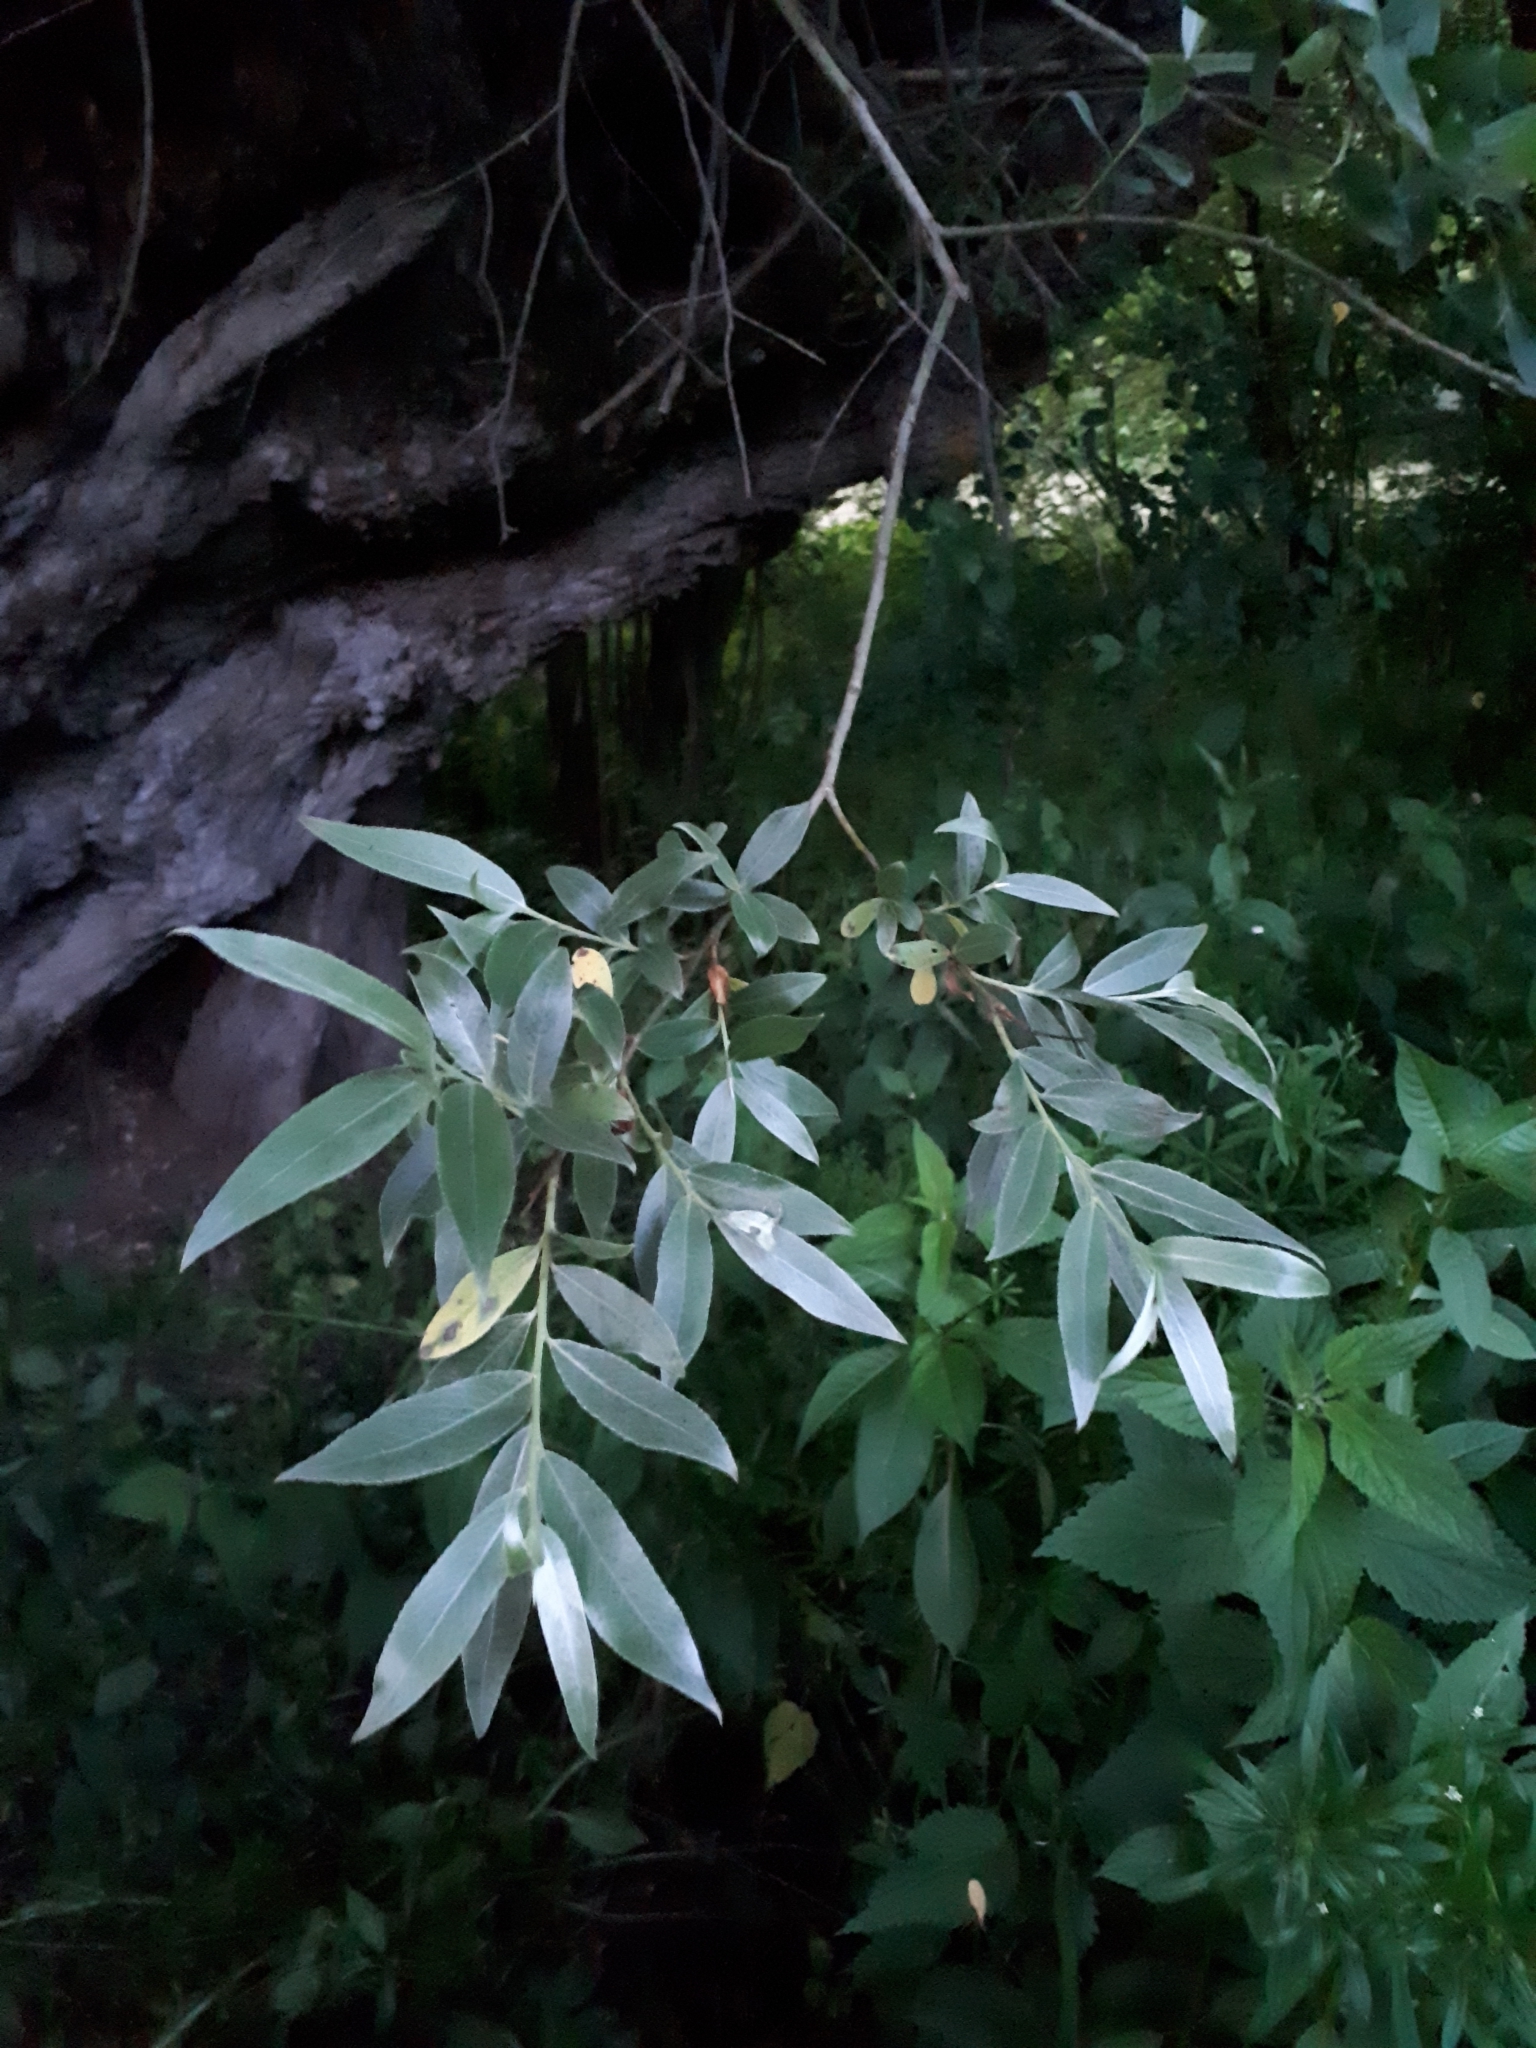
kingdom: Plantae
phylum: Tracheophyta
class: Magnoliopsida
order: Malpighiales
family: Salicaceae
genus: Salix
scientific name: Salix alba
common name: White willow
